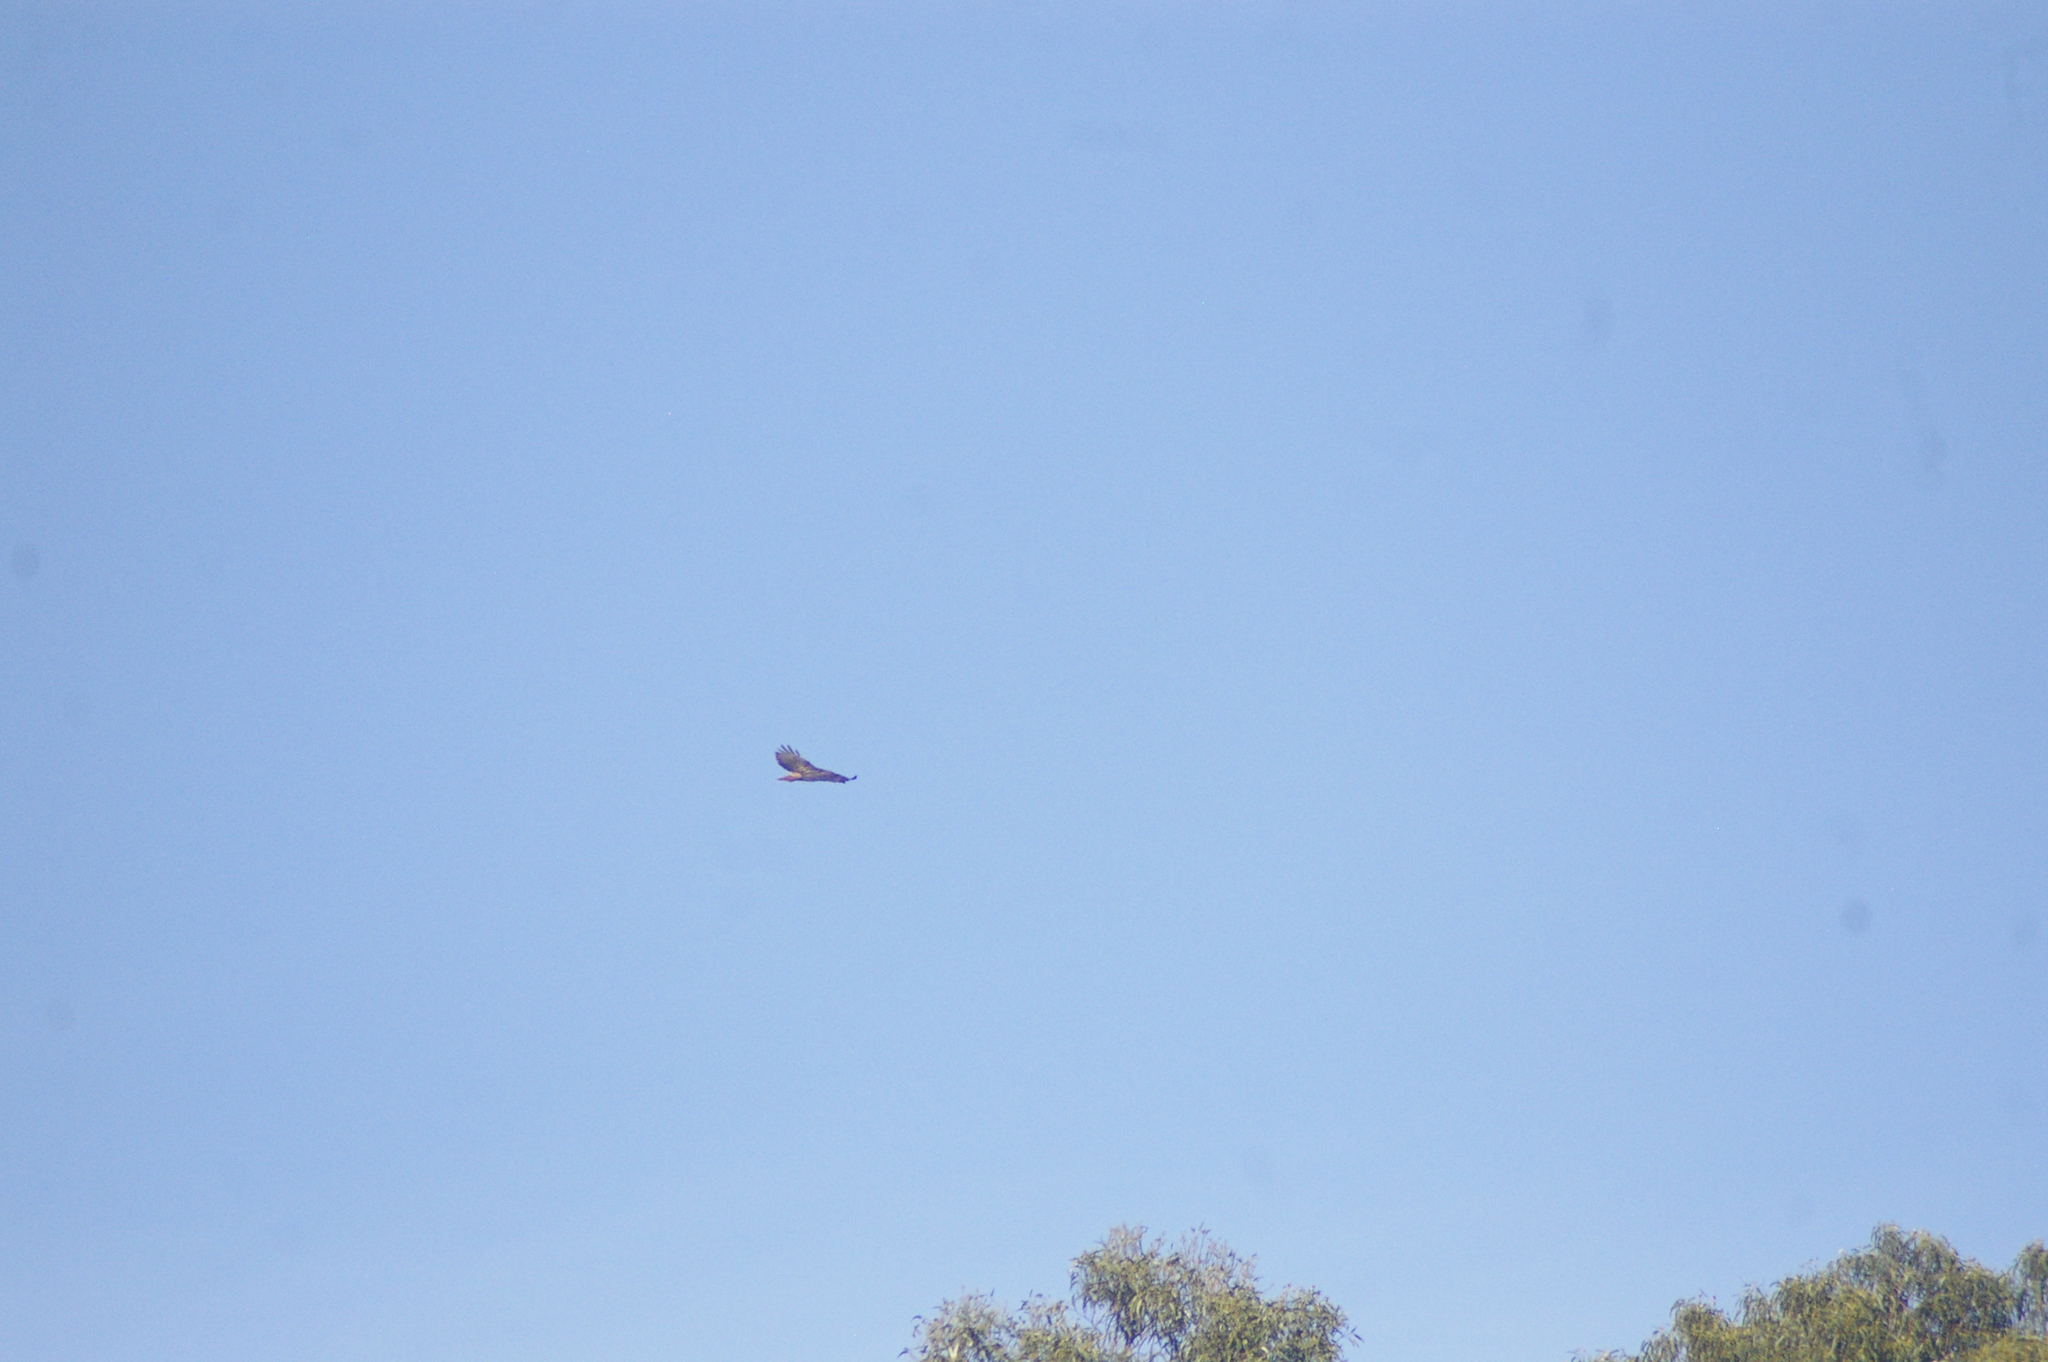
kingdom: Animalia
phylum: Chordata
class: Aves
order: Accipitriformes
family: Accipitridae
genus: Buteo
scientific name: Buteo jamaicensis
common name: Red-tailed hawk
